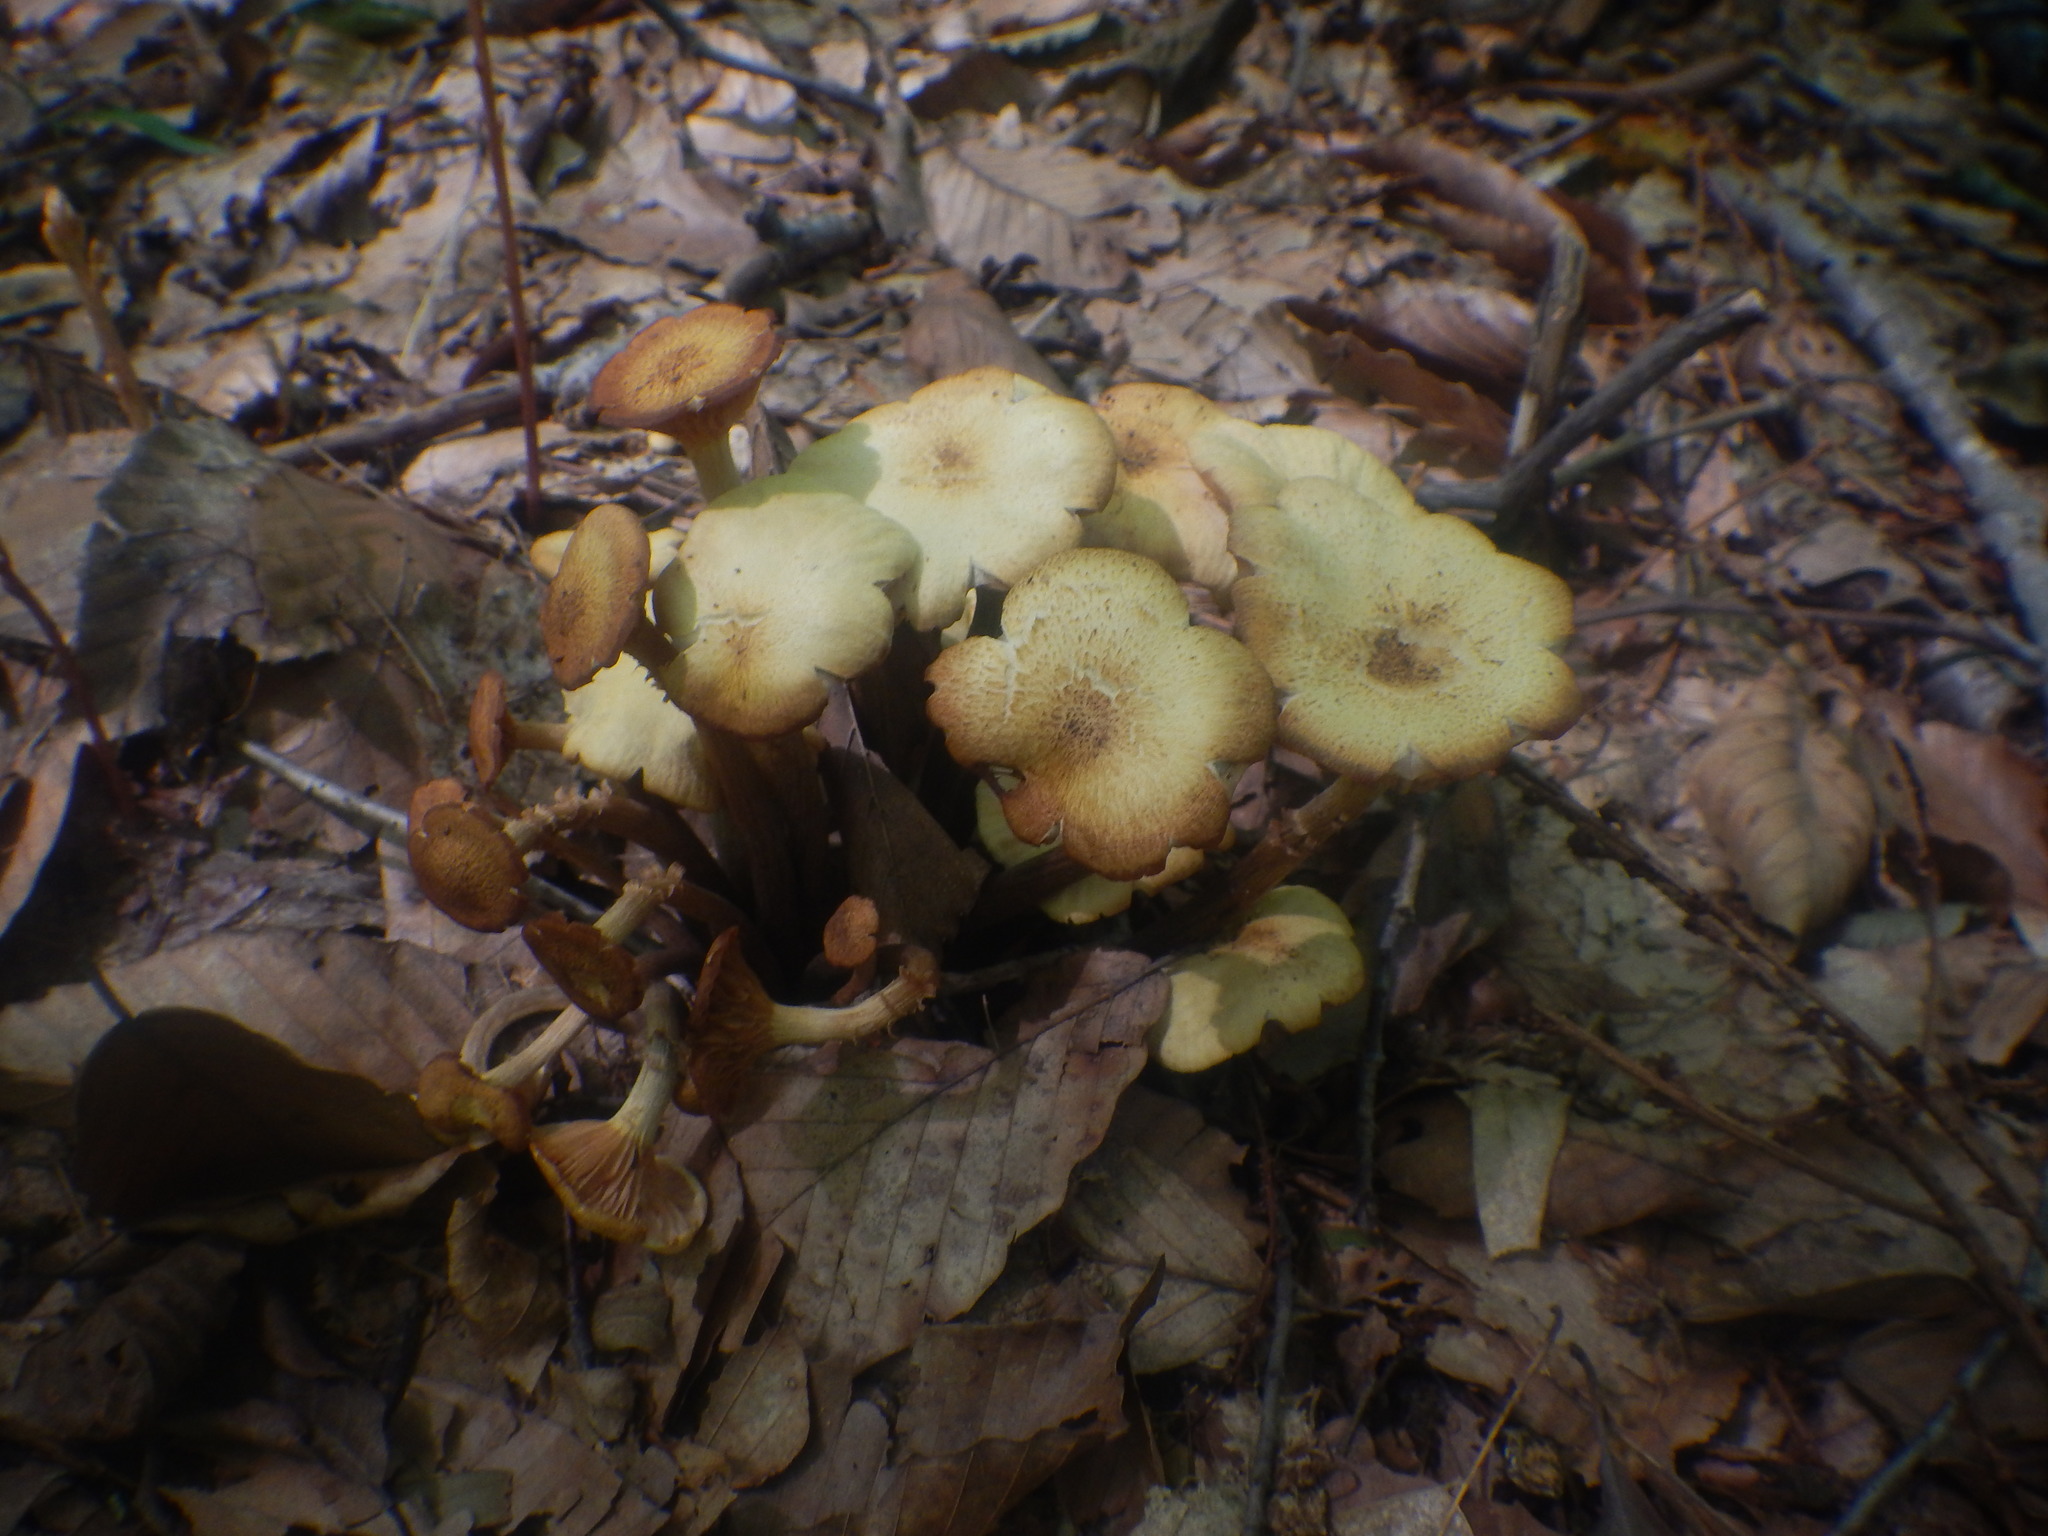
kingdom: Fungi
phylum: Basidiomycota
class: Agaricomycetes
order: Agaricales
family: Physalacriaceae
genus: Desarmillaria
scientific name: Desarmillaria caespitosa
